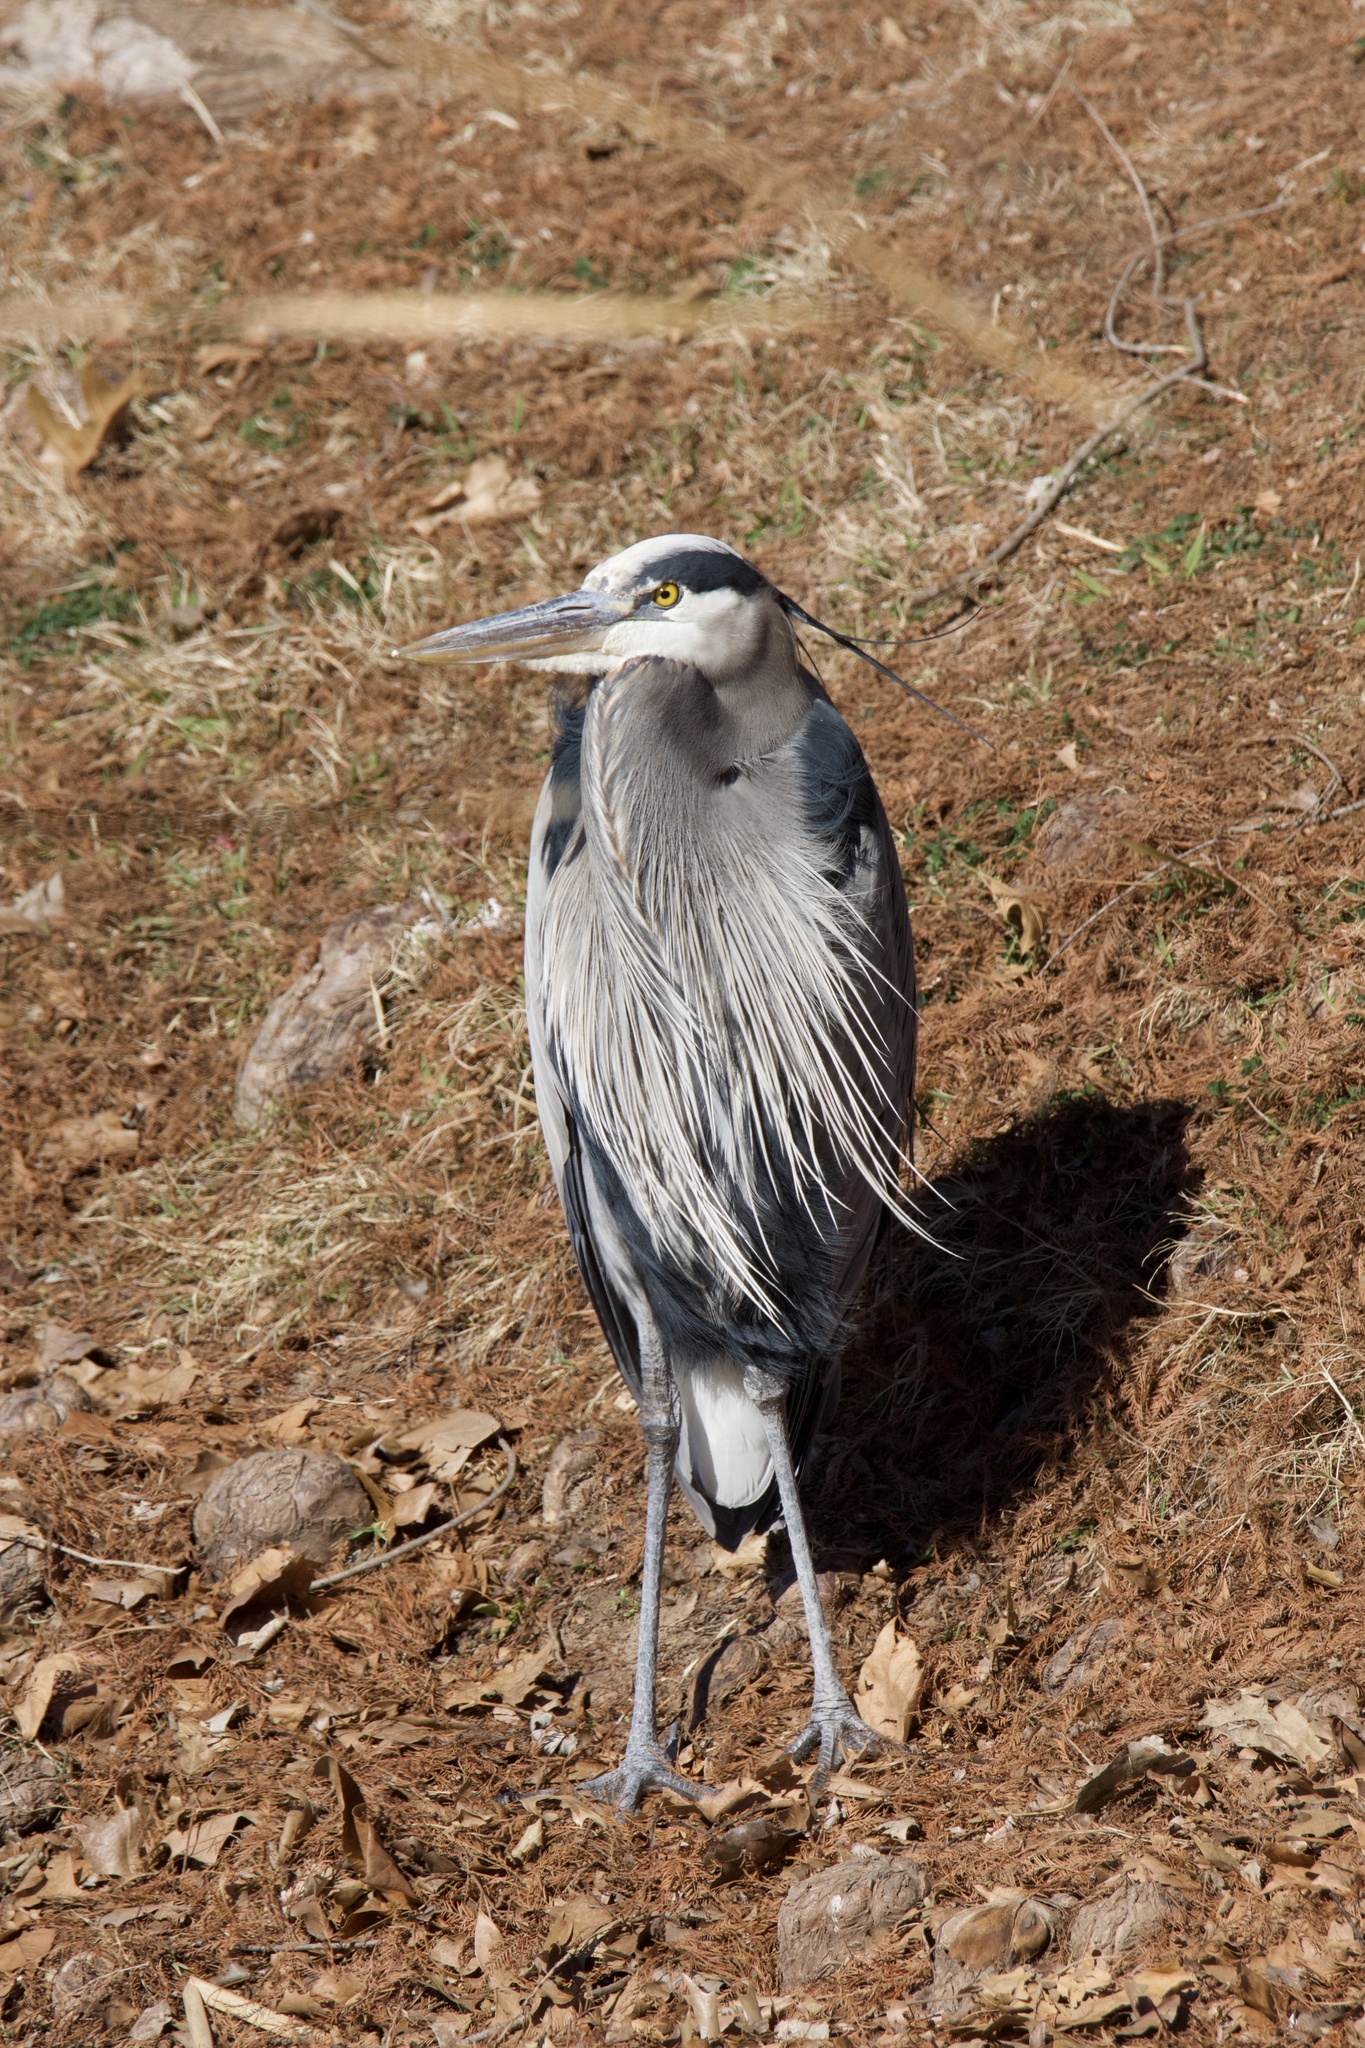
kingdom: Animalia
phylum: Chordata
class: Aves
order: Pelecaniformes
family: Ardeidae
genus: Ardea
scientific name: Ardea herodias
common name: Great blue heron
